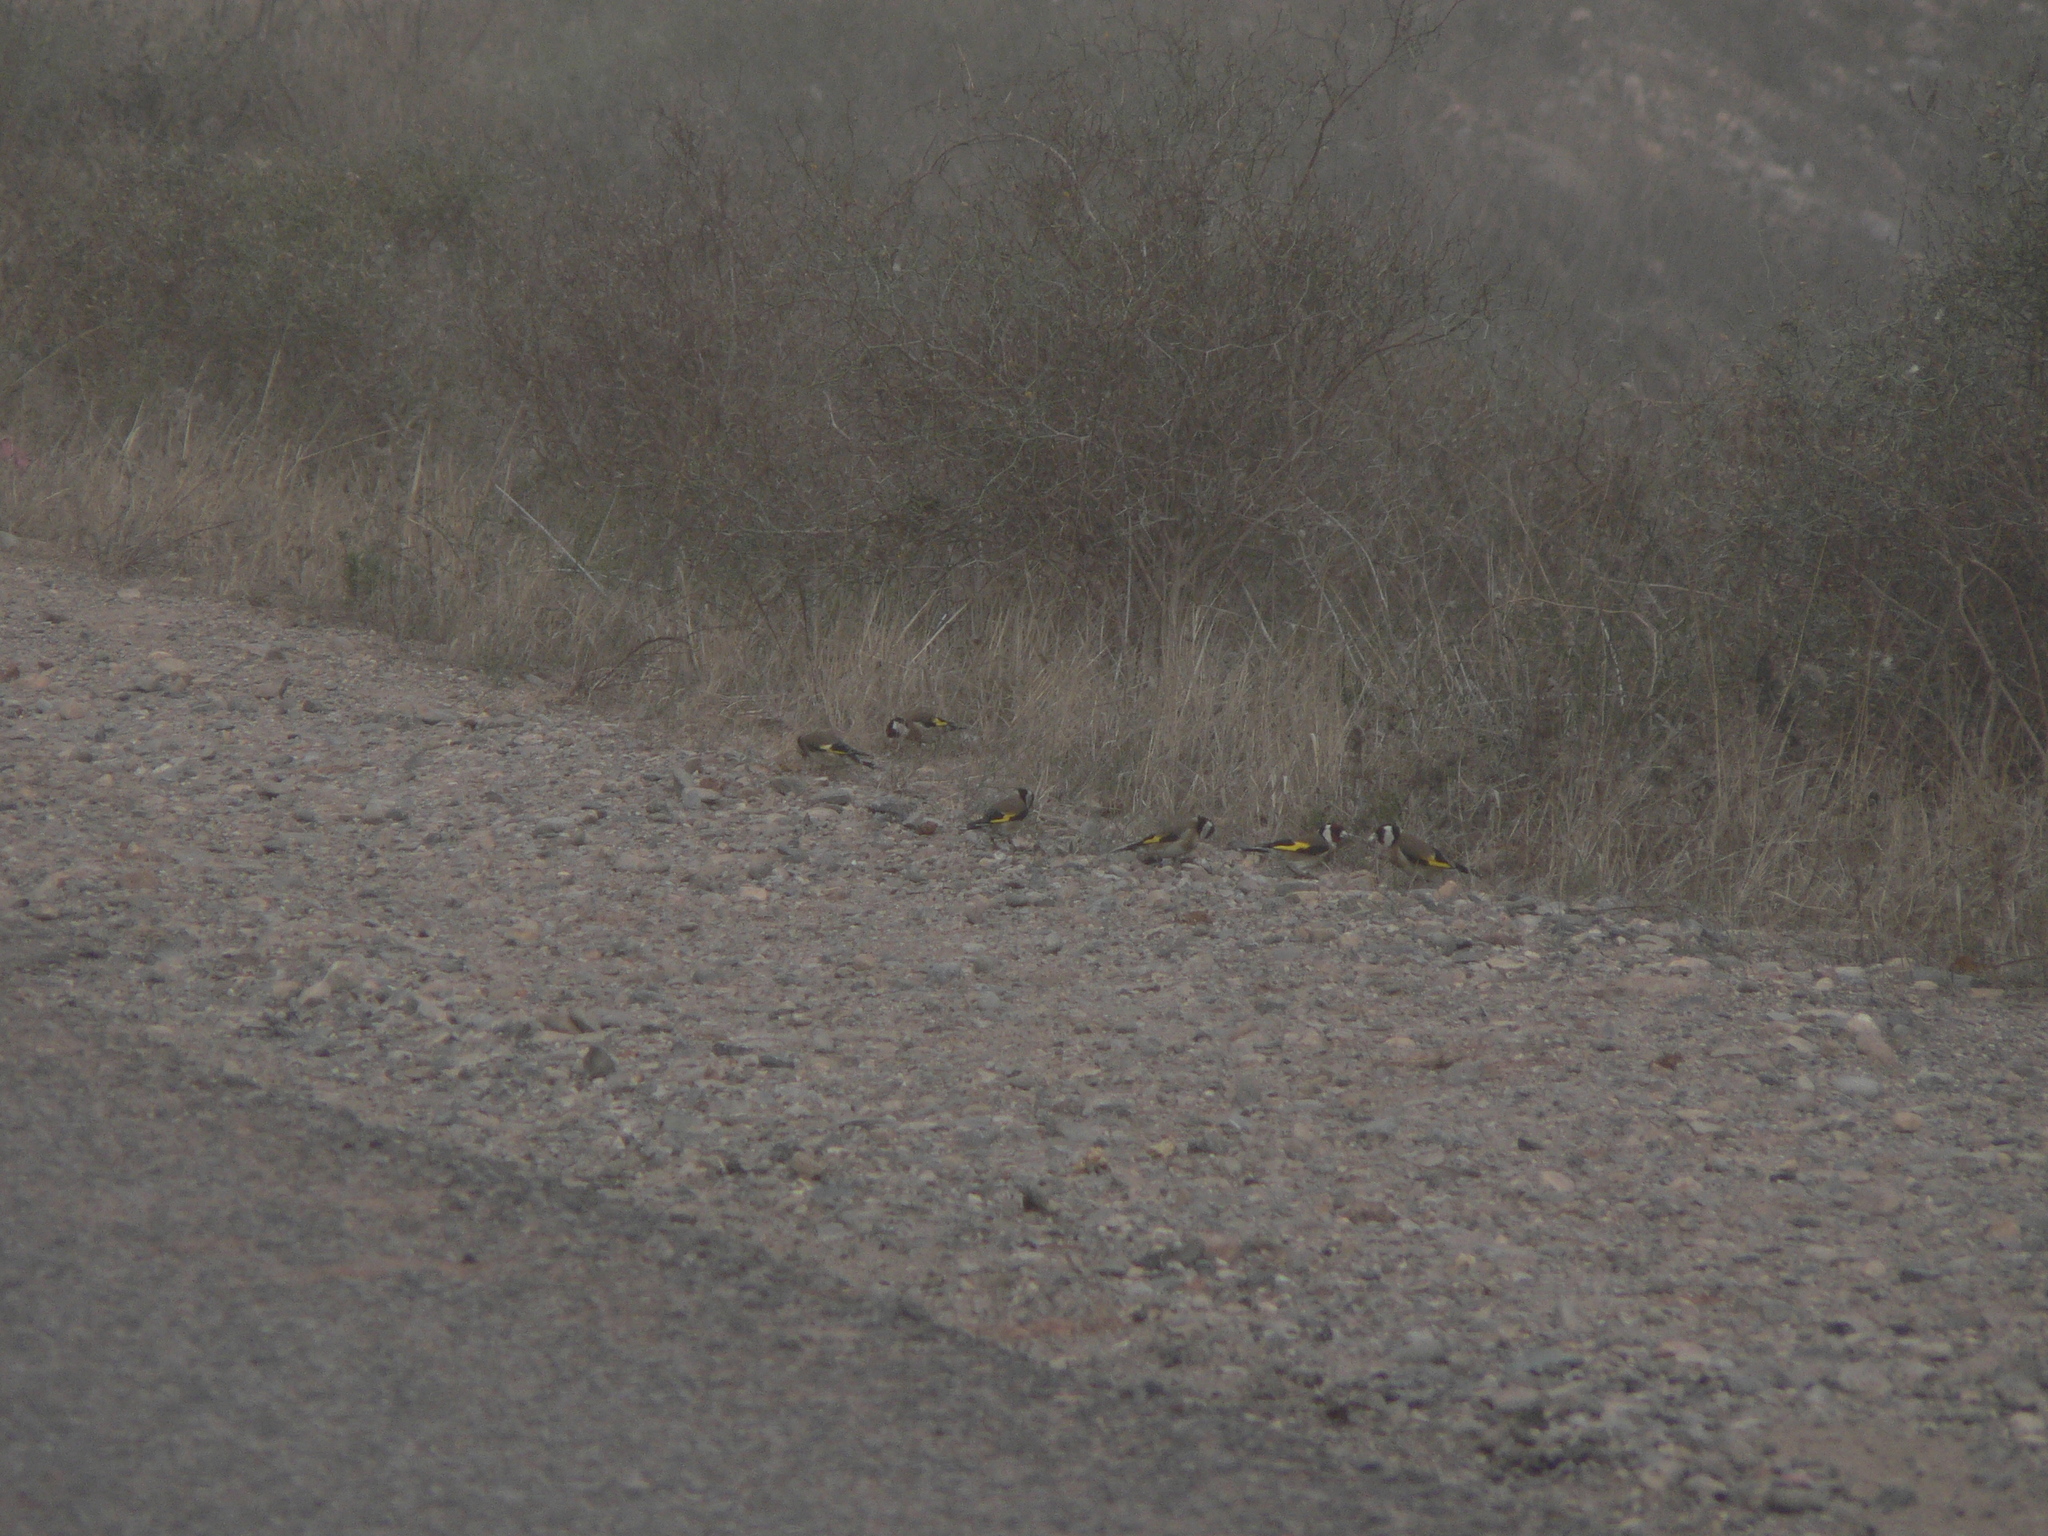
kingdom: Animalia
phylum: Chordata
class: Aves
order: Passeriformes
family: Fringillidae
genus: Carduelis
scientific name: Carduelis carduelis
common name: European goldfinch
